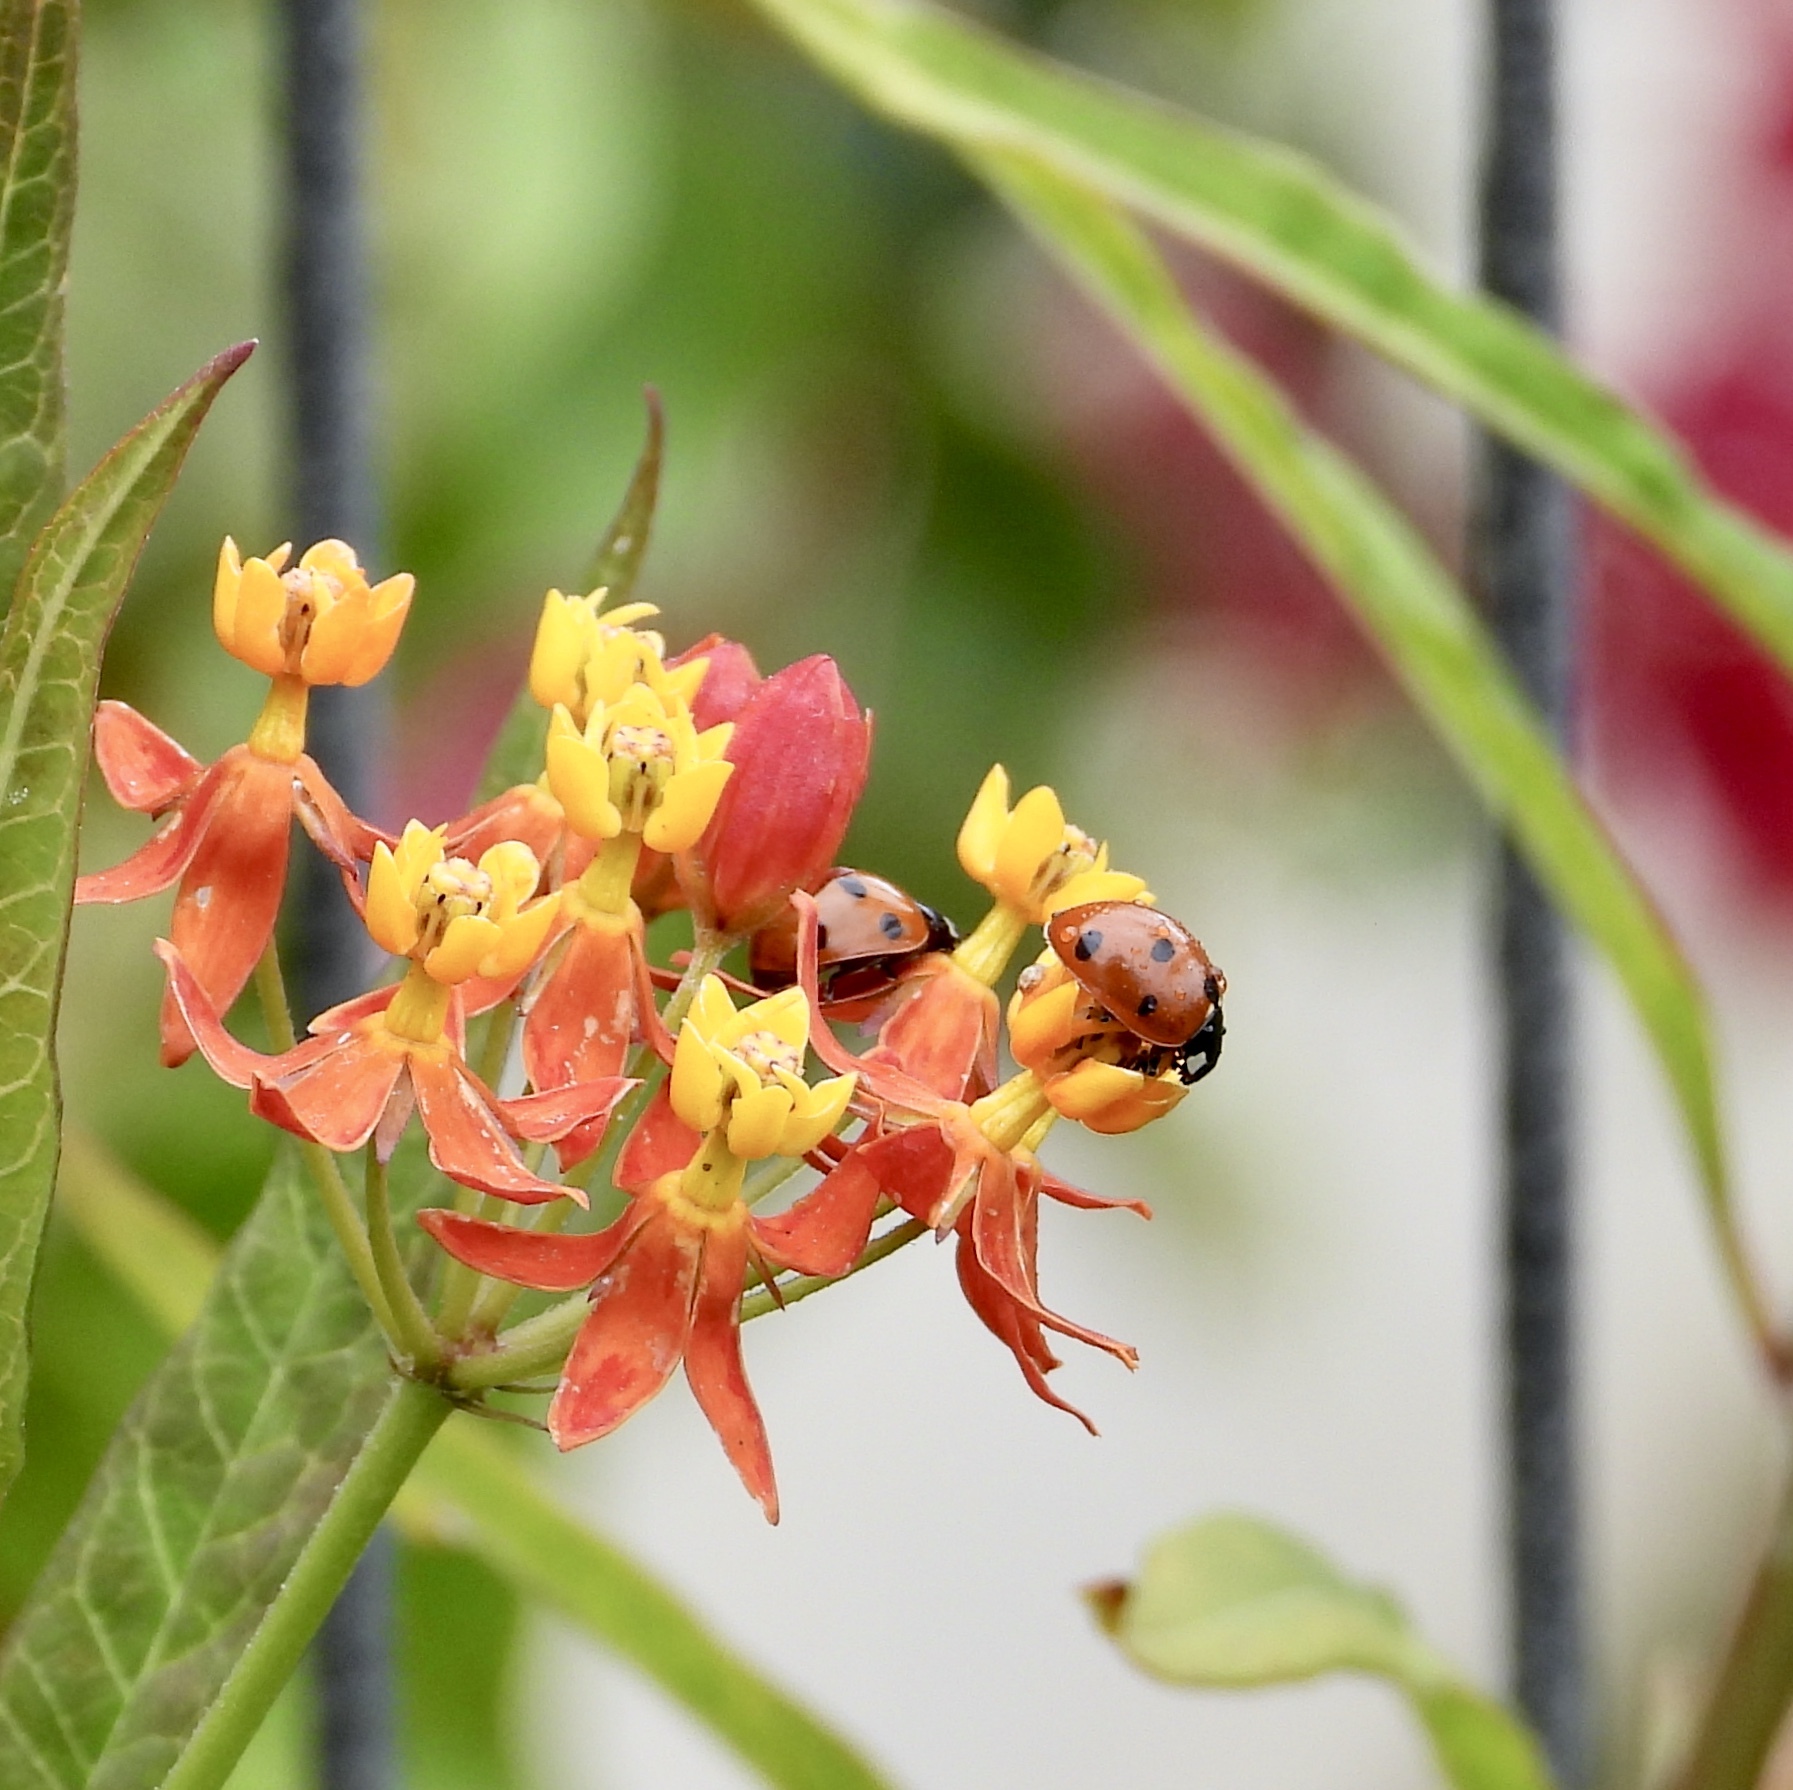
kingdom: Animalia
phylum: Arthropoda
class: Insecta
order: Coleoptera
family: Coccinellidae
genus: Coccinella
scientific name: Coccinella septempunctata
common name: Sevenspotted lady beetle
